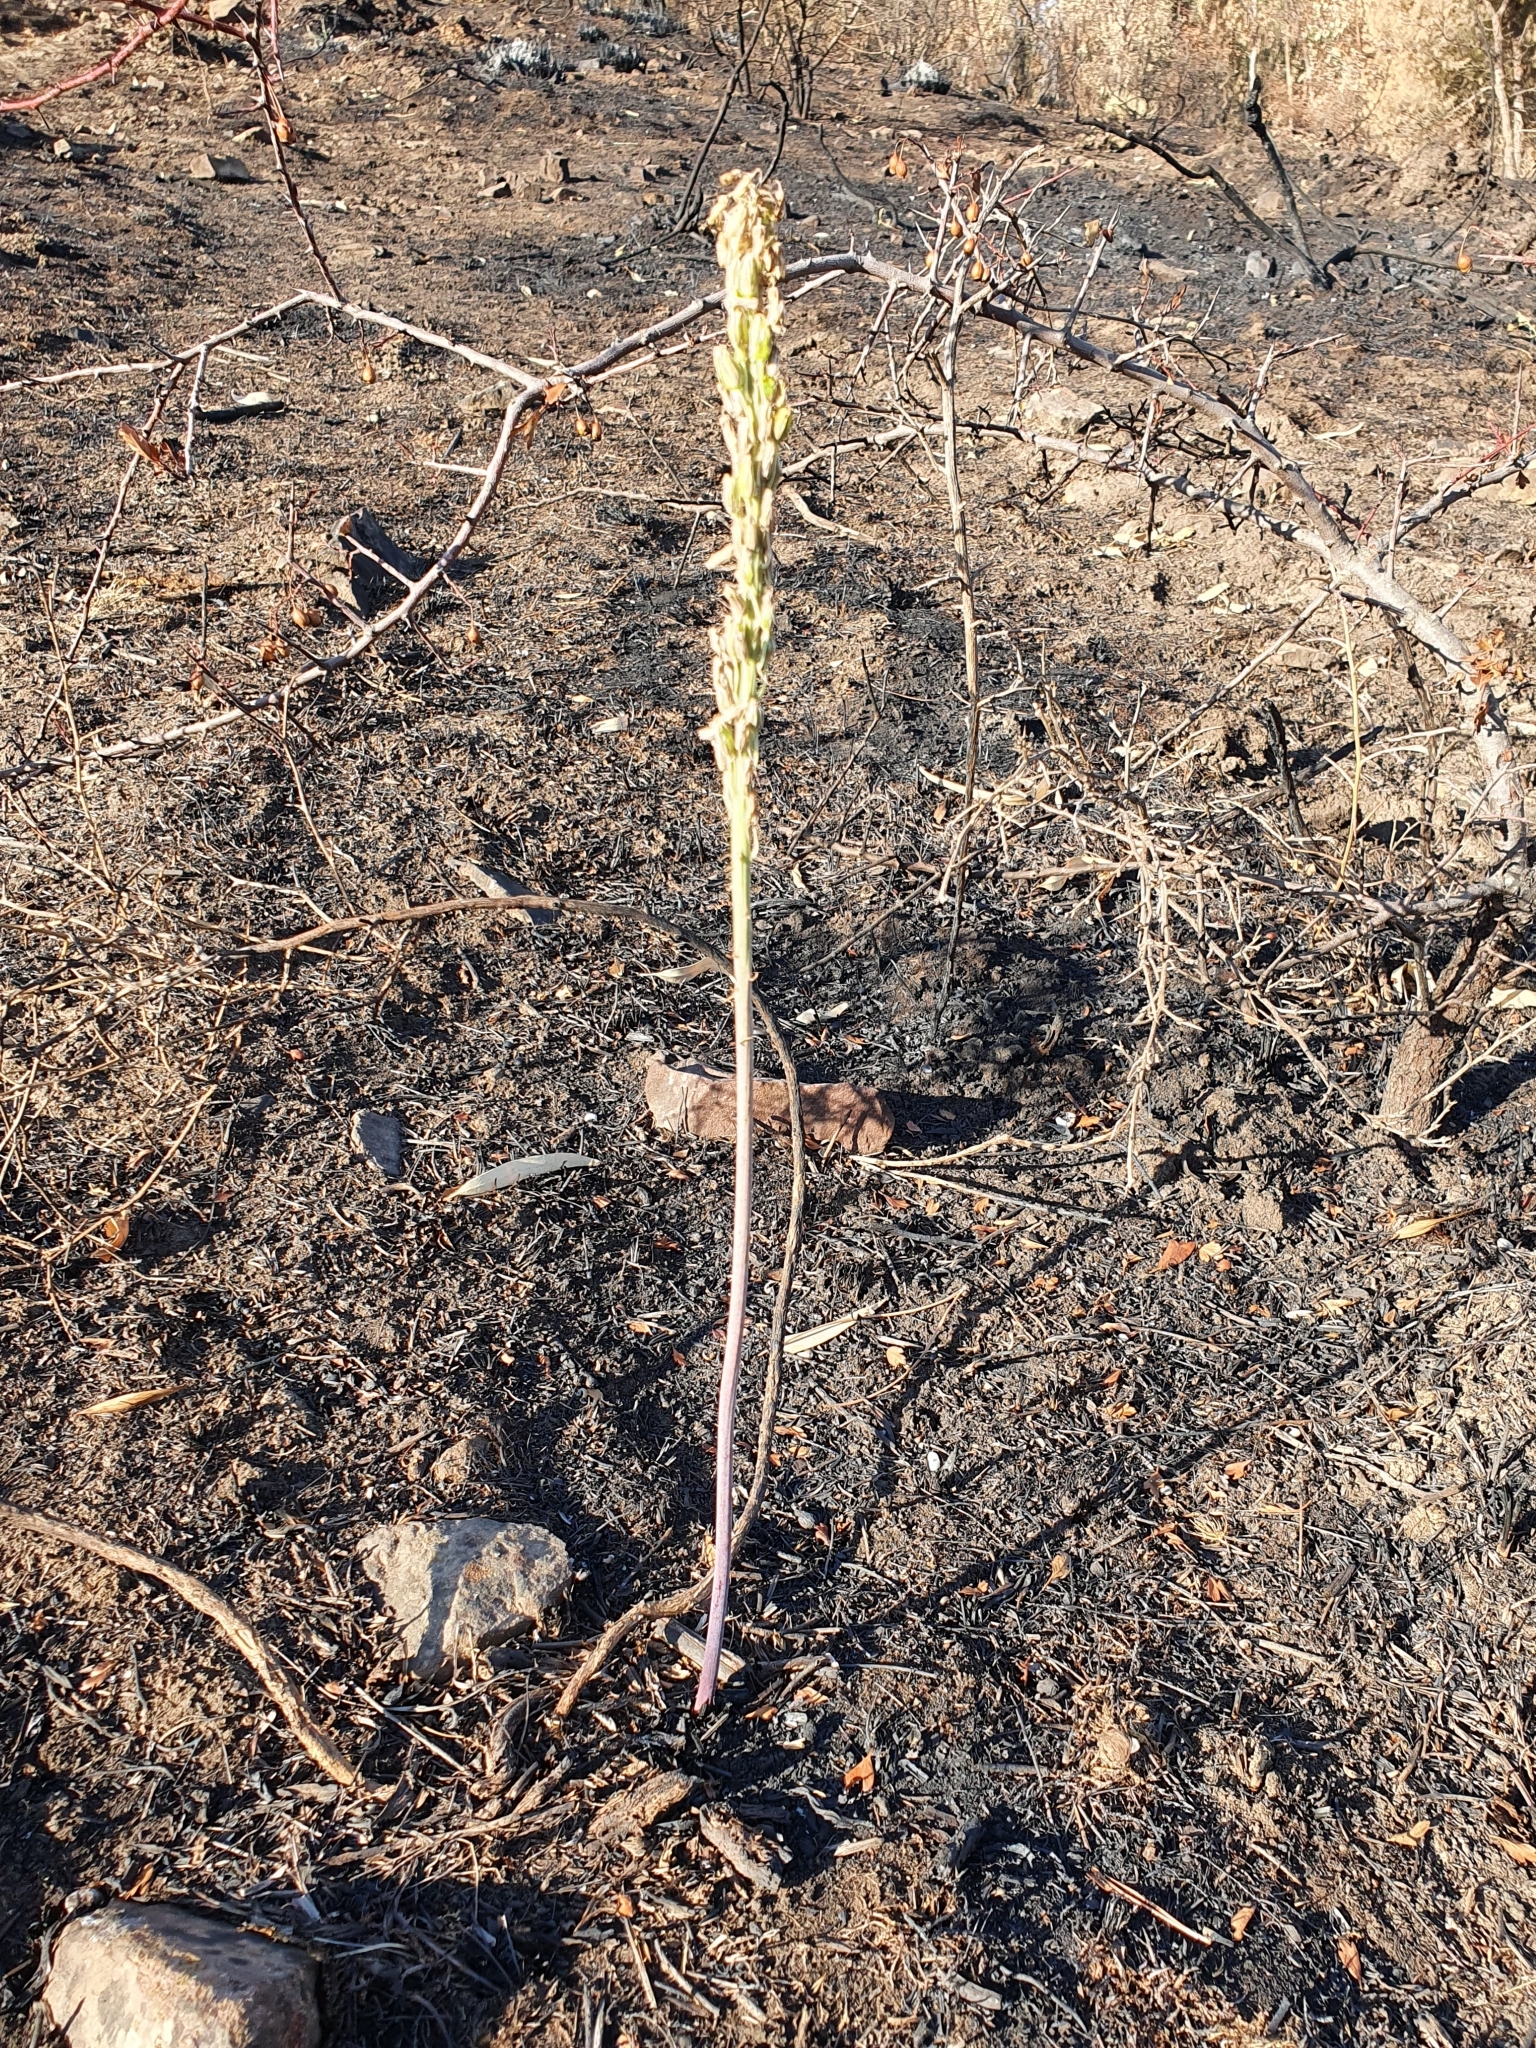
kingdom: Plantae
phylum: Tracheophyta
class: Liliopsida
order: Asparagales
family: Asparagaceae
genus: Drimia
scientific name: Drimia numidica
